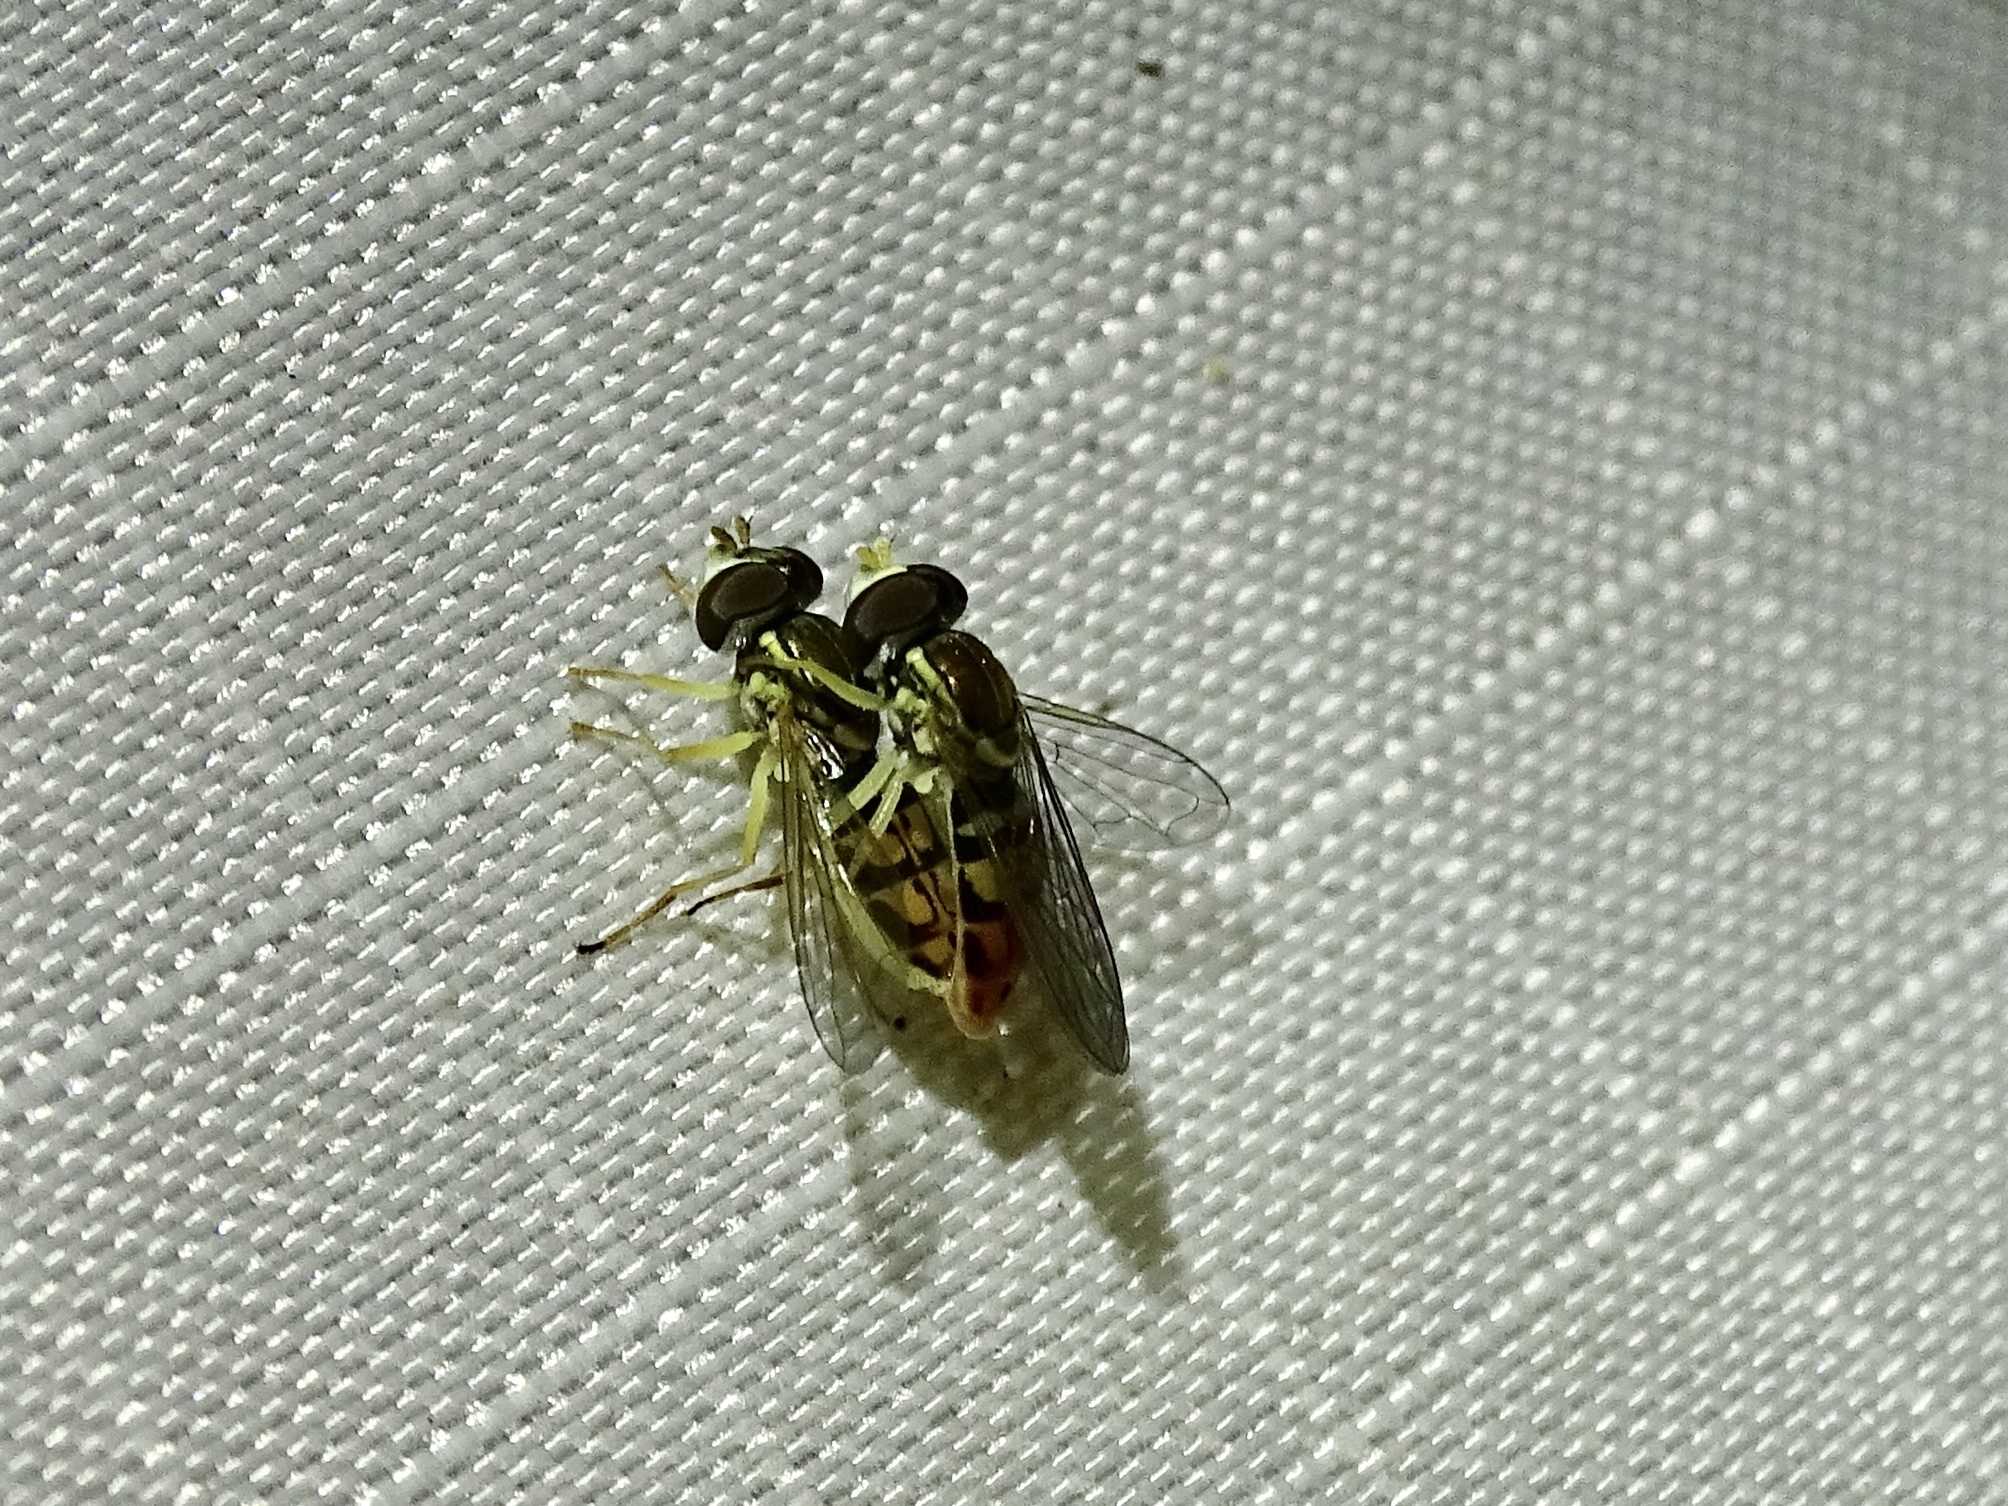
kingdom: Animalia
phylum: Arthropoda
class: Insecta
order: Diptera
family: Syrphidae
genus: Toxomerus
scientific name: Toxomerus marginatus
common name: Syrphid fly
